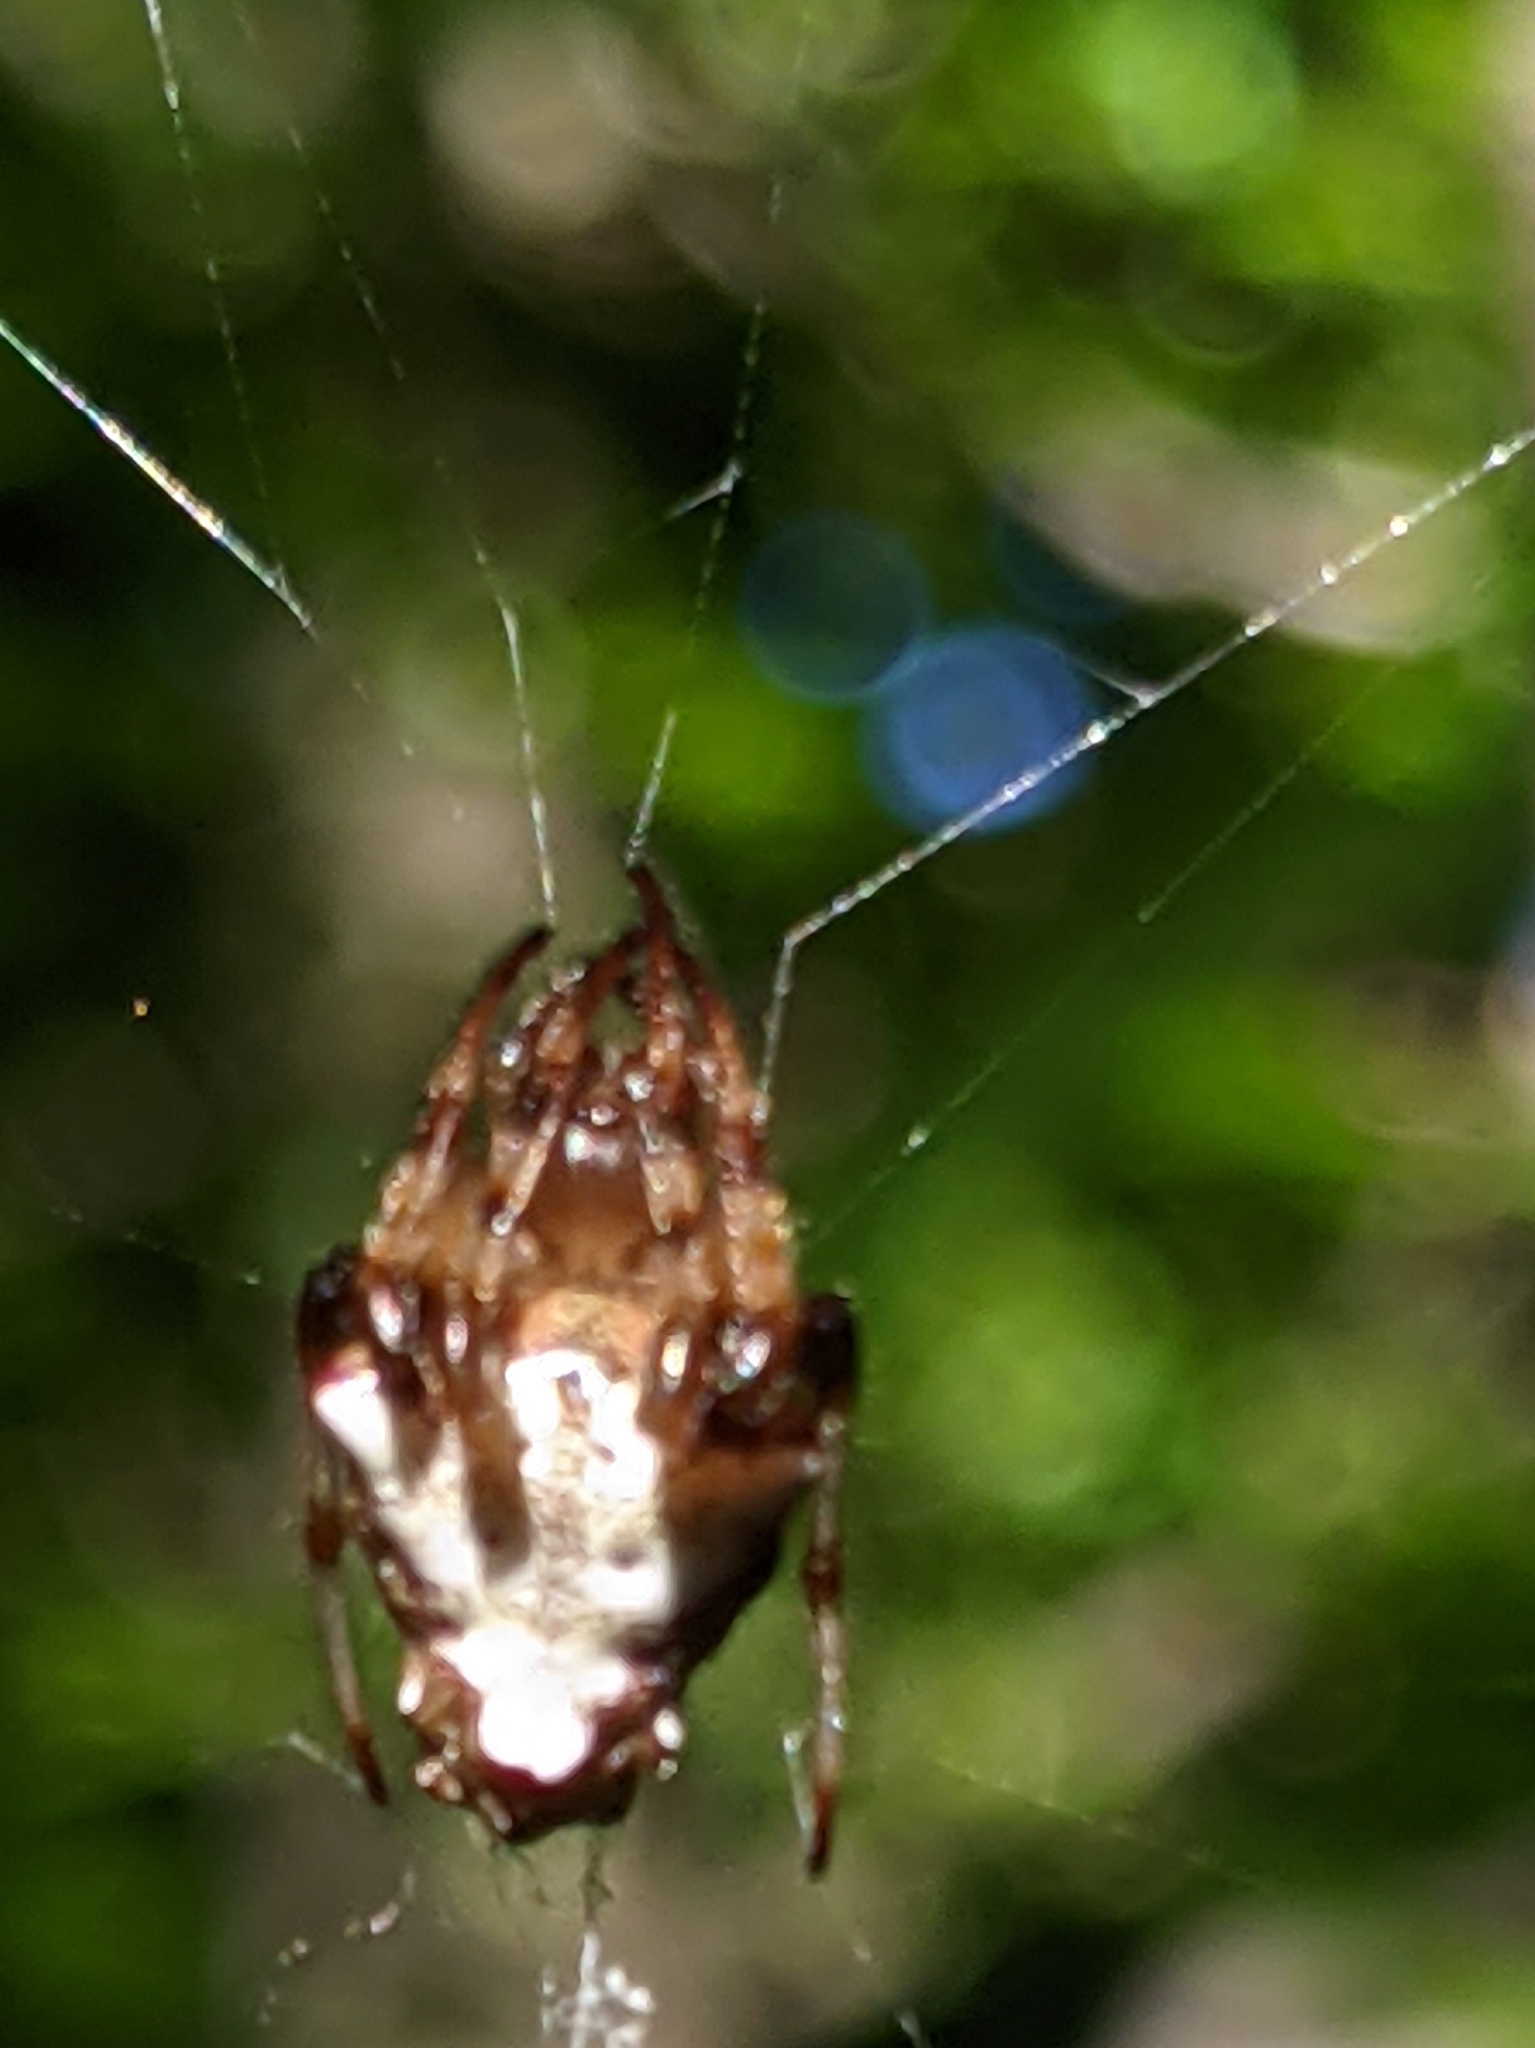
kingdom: Animalia
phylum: Arthropoda
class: Arachnida
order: Araneae
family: Araneidae
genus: Verrucosa
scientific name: Verrucosa arenata
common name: Orb weavers
